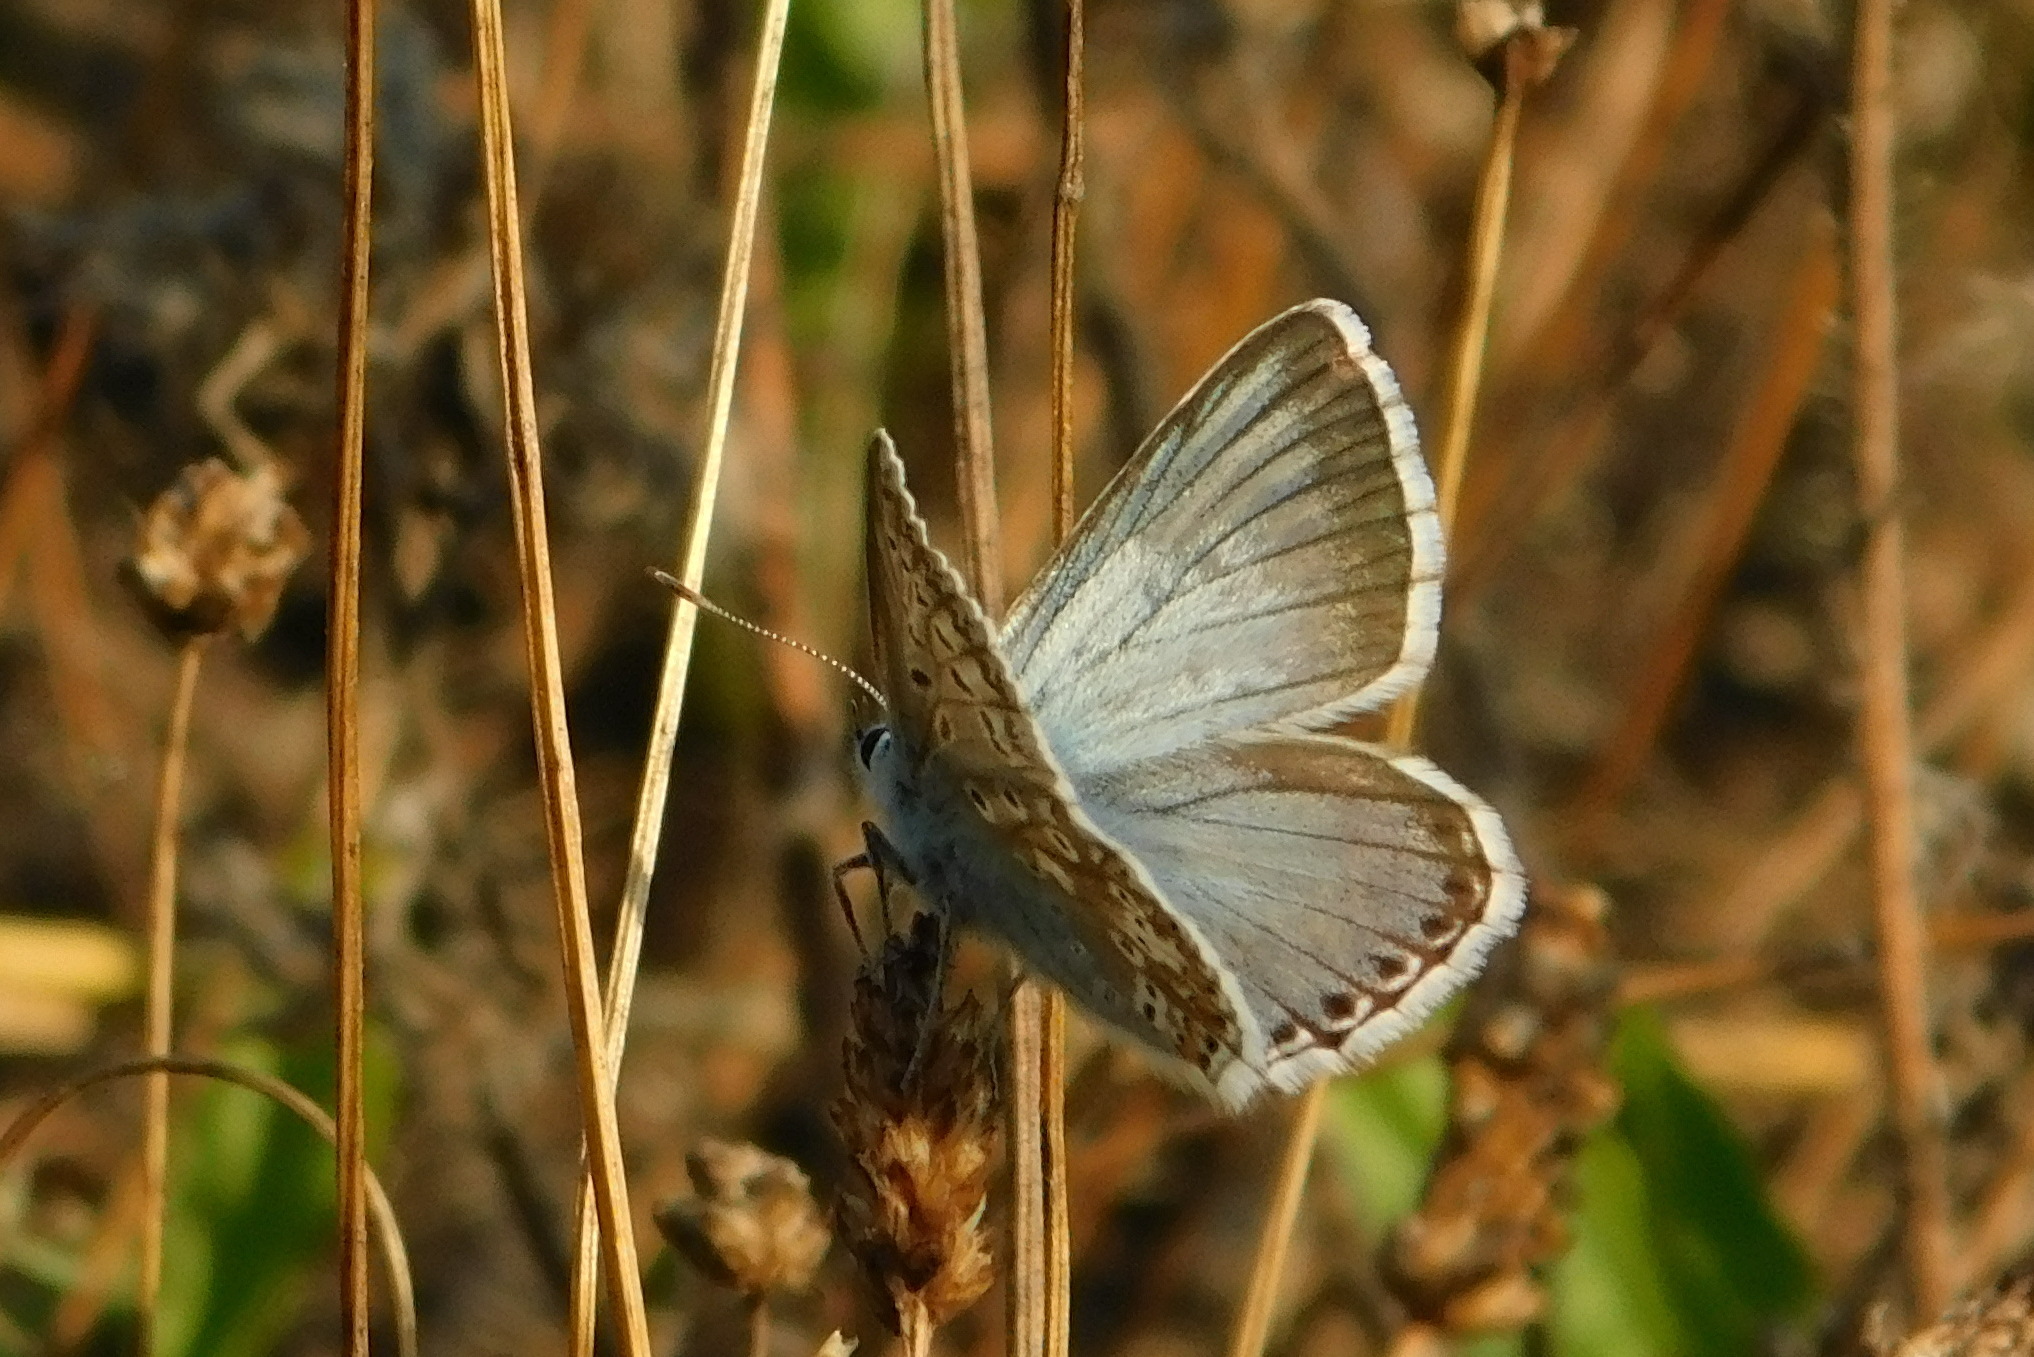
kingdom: Animalia
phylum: Arthropoda
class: Insecta
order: Lepidoptera
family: Lycaenidae
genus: Lysandra
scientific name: Lysandra coridon
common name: Chalkhill blue
